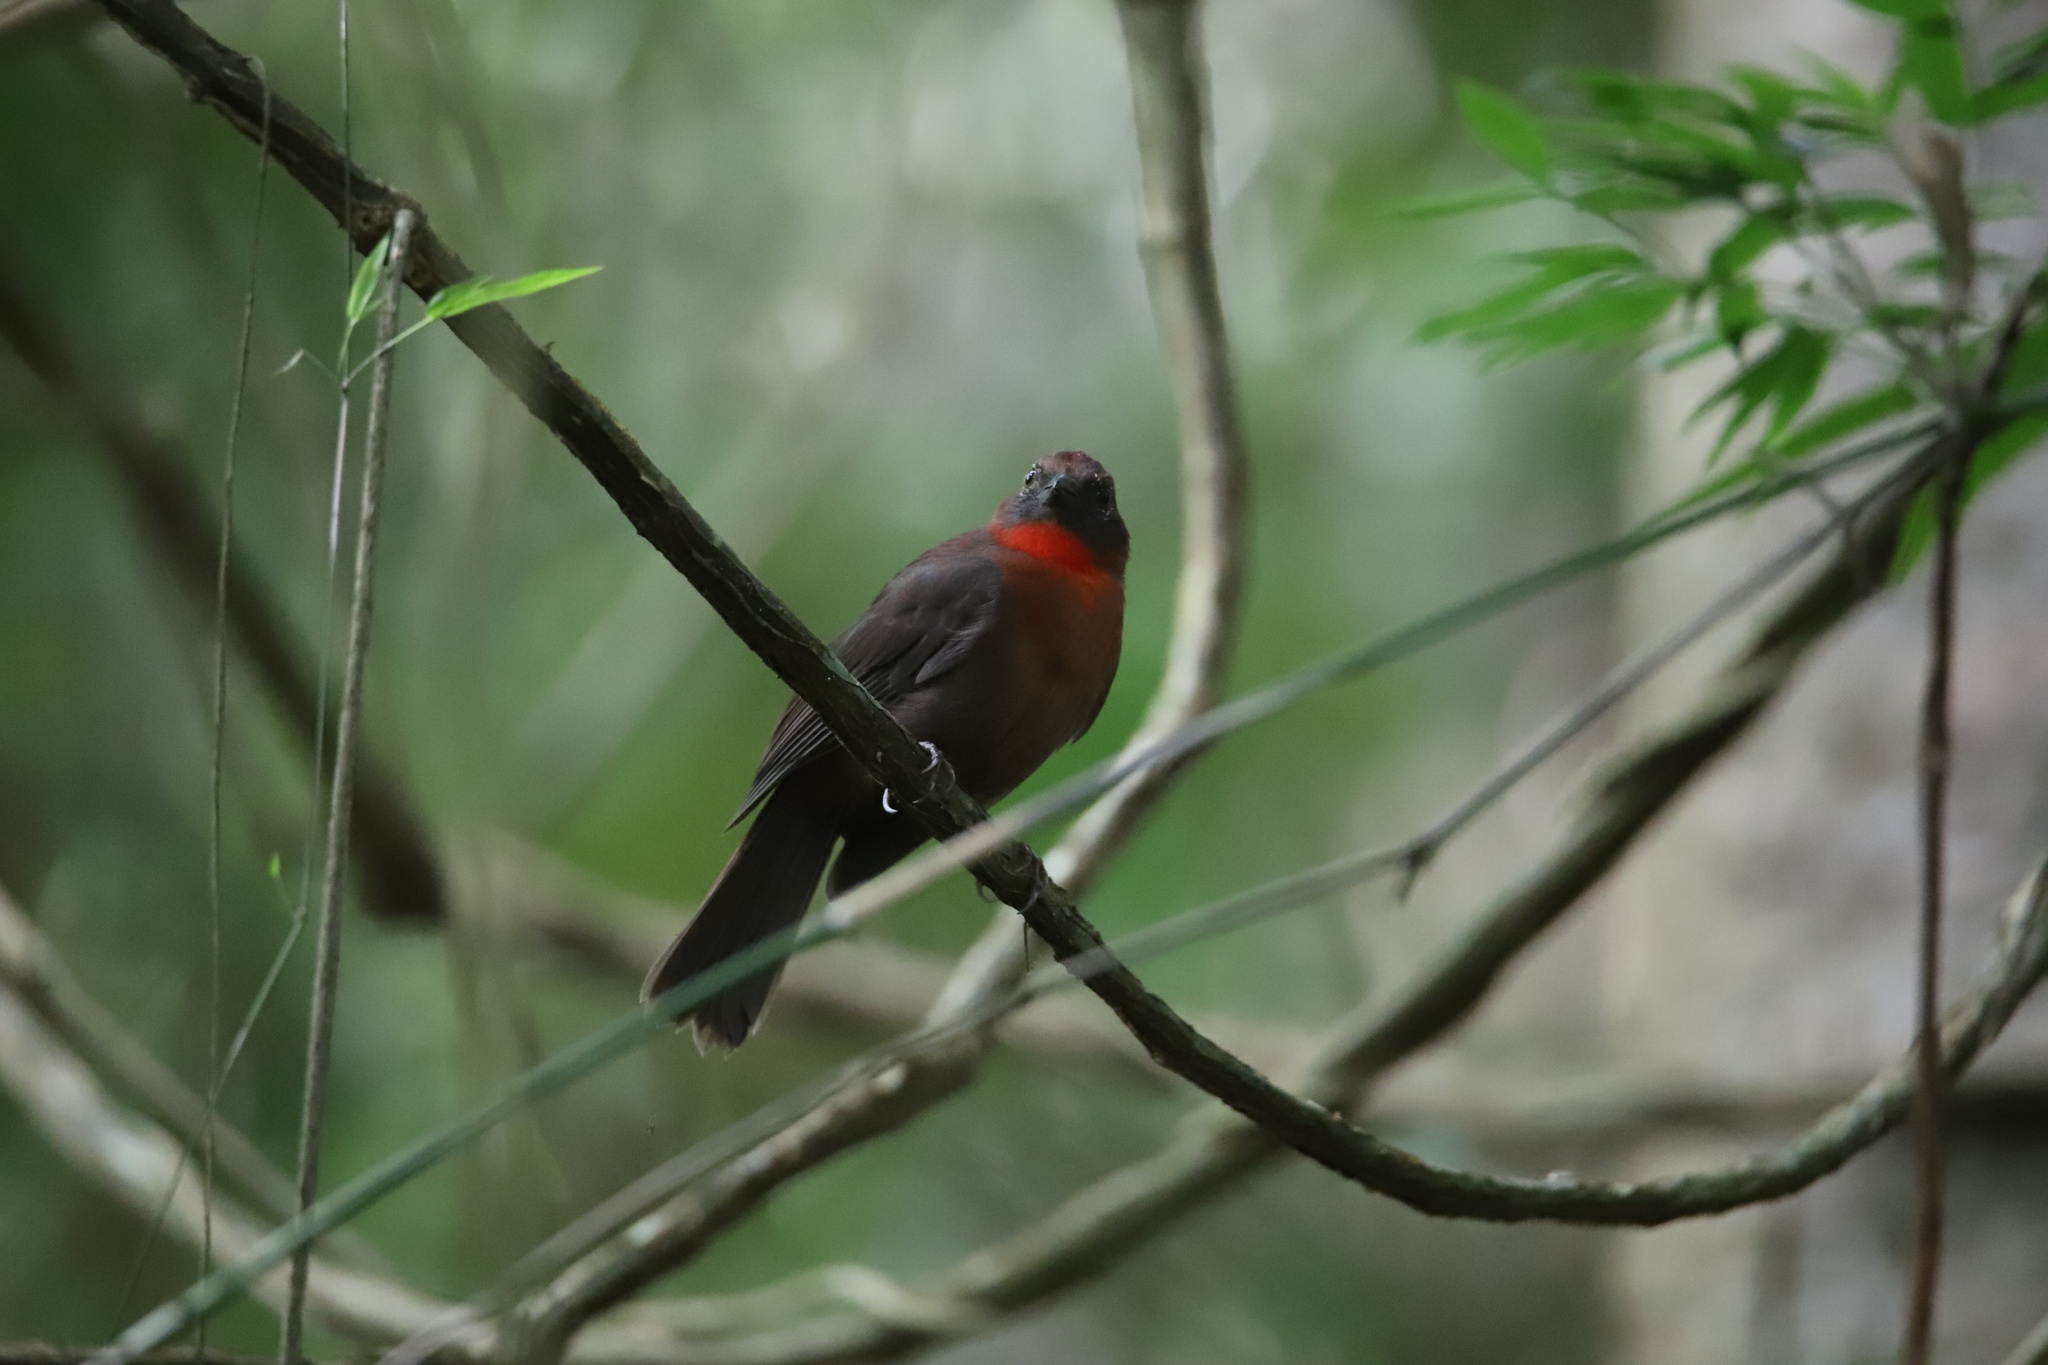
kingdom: Animalia
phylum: Chordata
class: Aves
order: Passeriformes
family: Cardinalidae
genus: Habia
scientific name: Habia fuscicauda
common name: Red-throated ant-tanager
